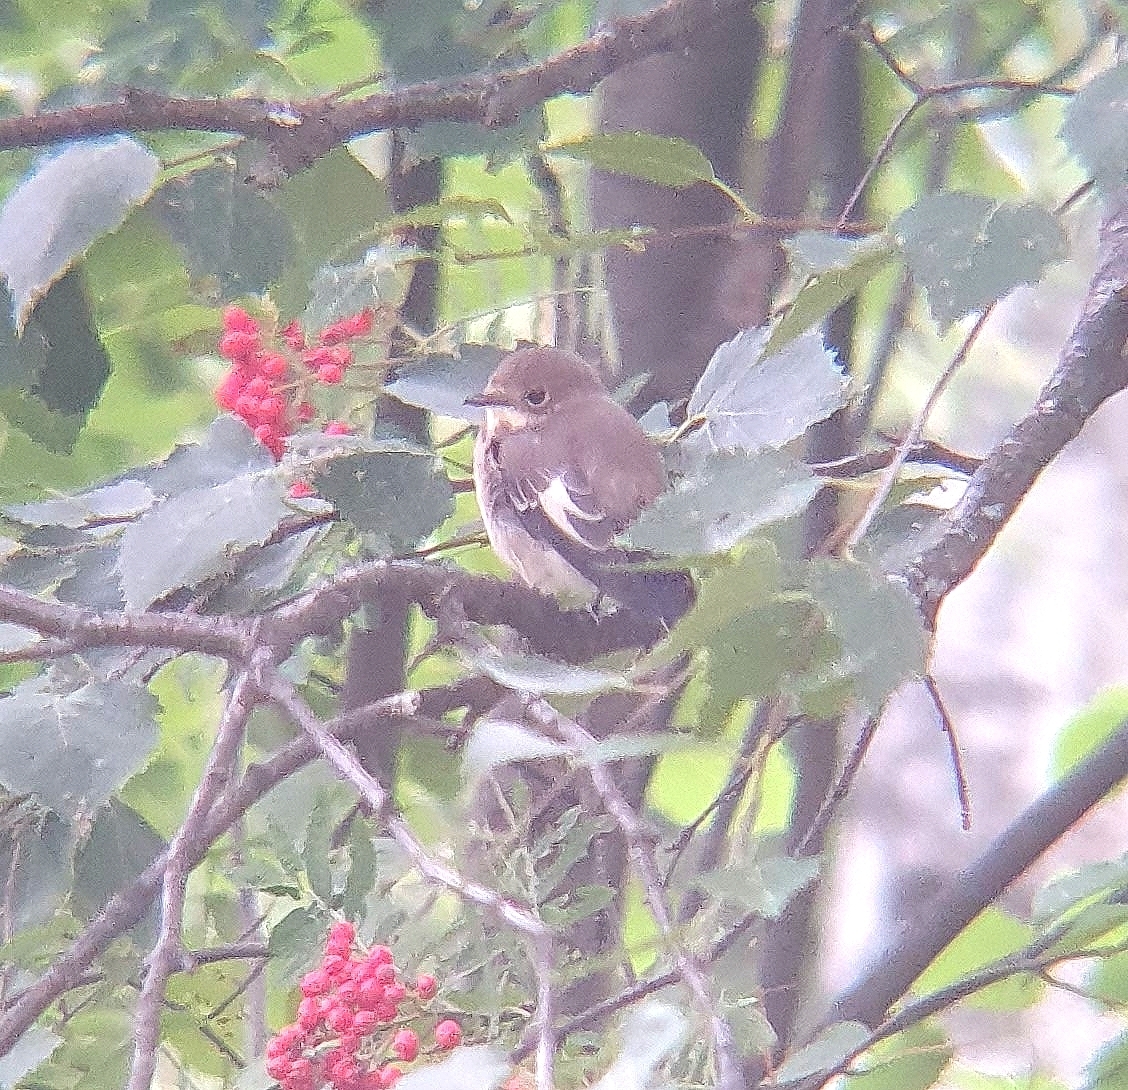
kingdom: Animalia
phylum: Chordata
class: Aves
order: Passeriformes
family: Muscicapidae
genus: Ficedula
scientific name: Ficedula hypoleuca
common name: European pied flycatcher
